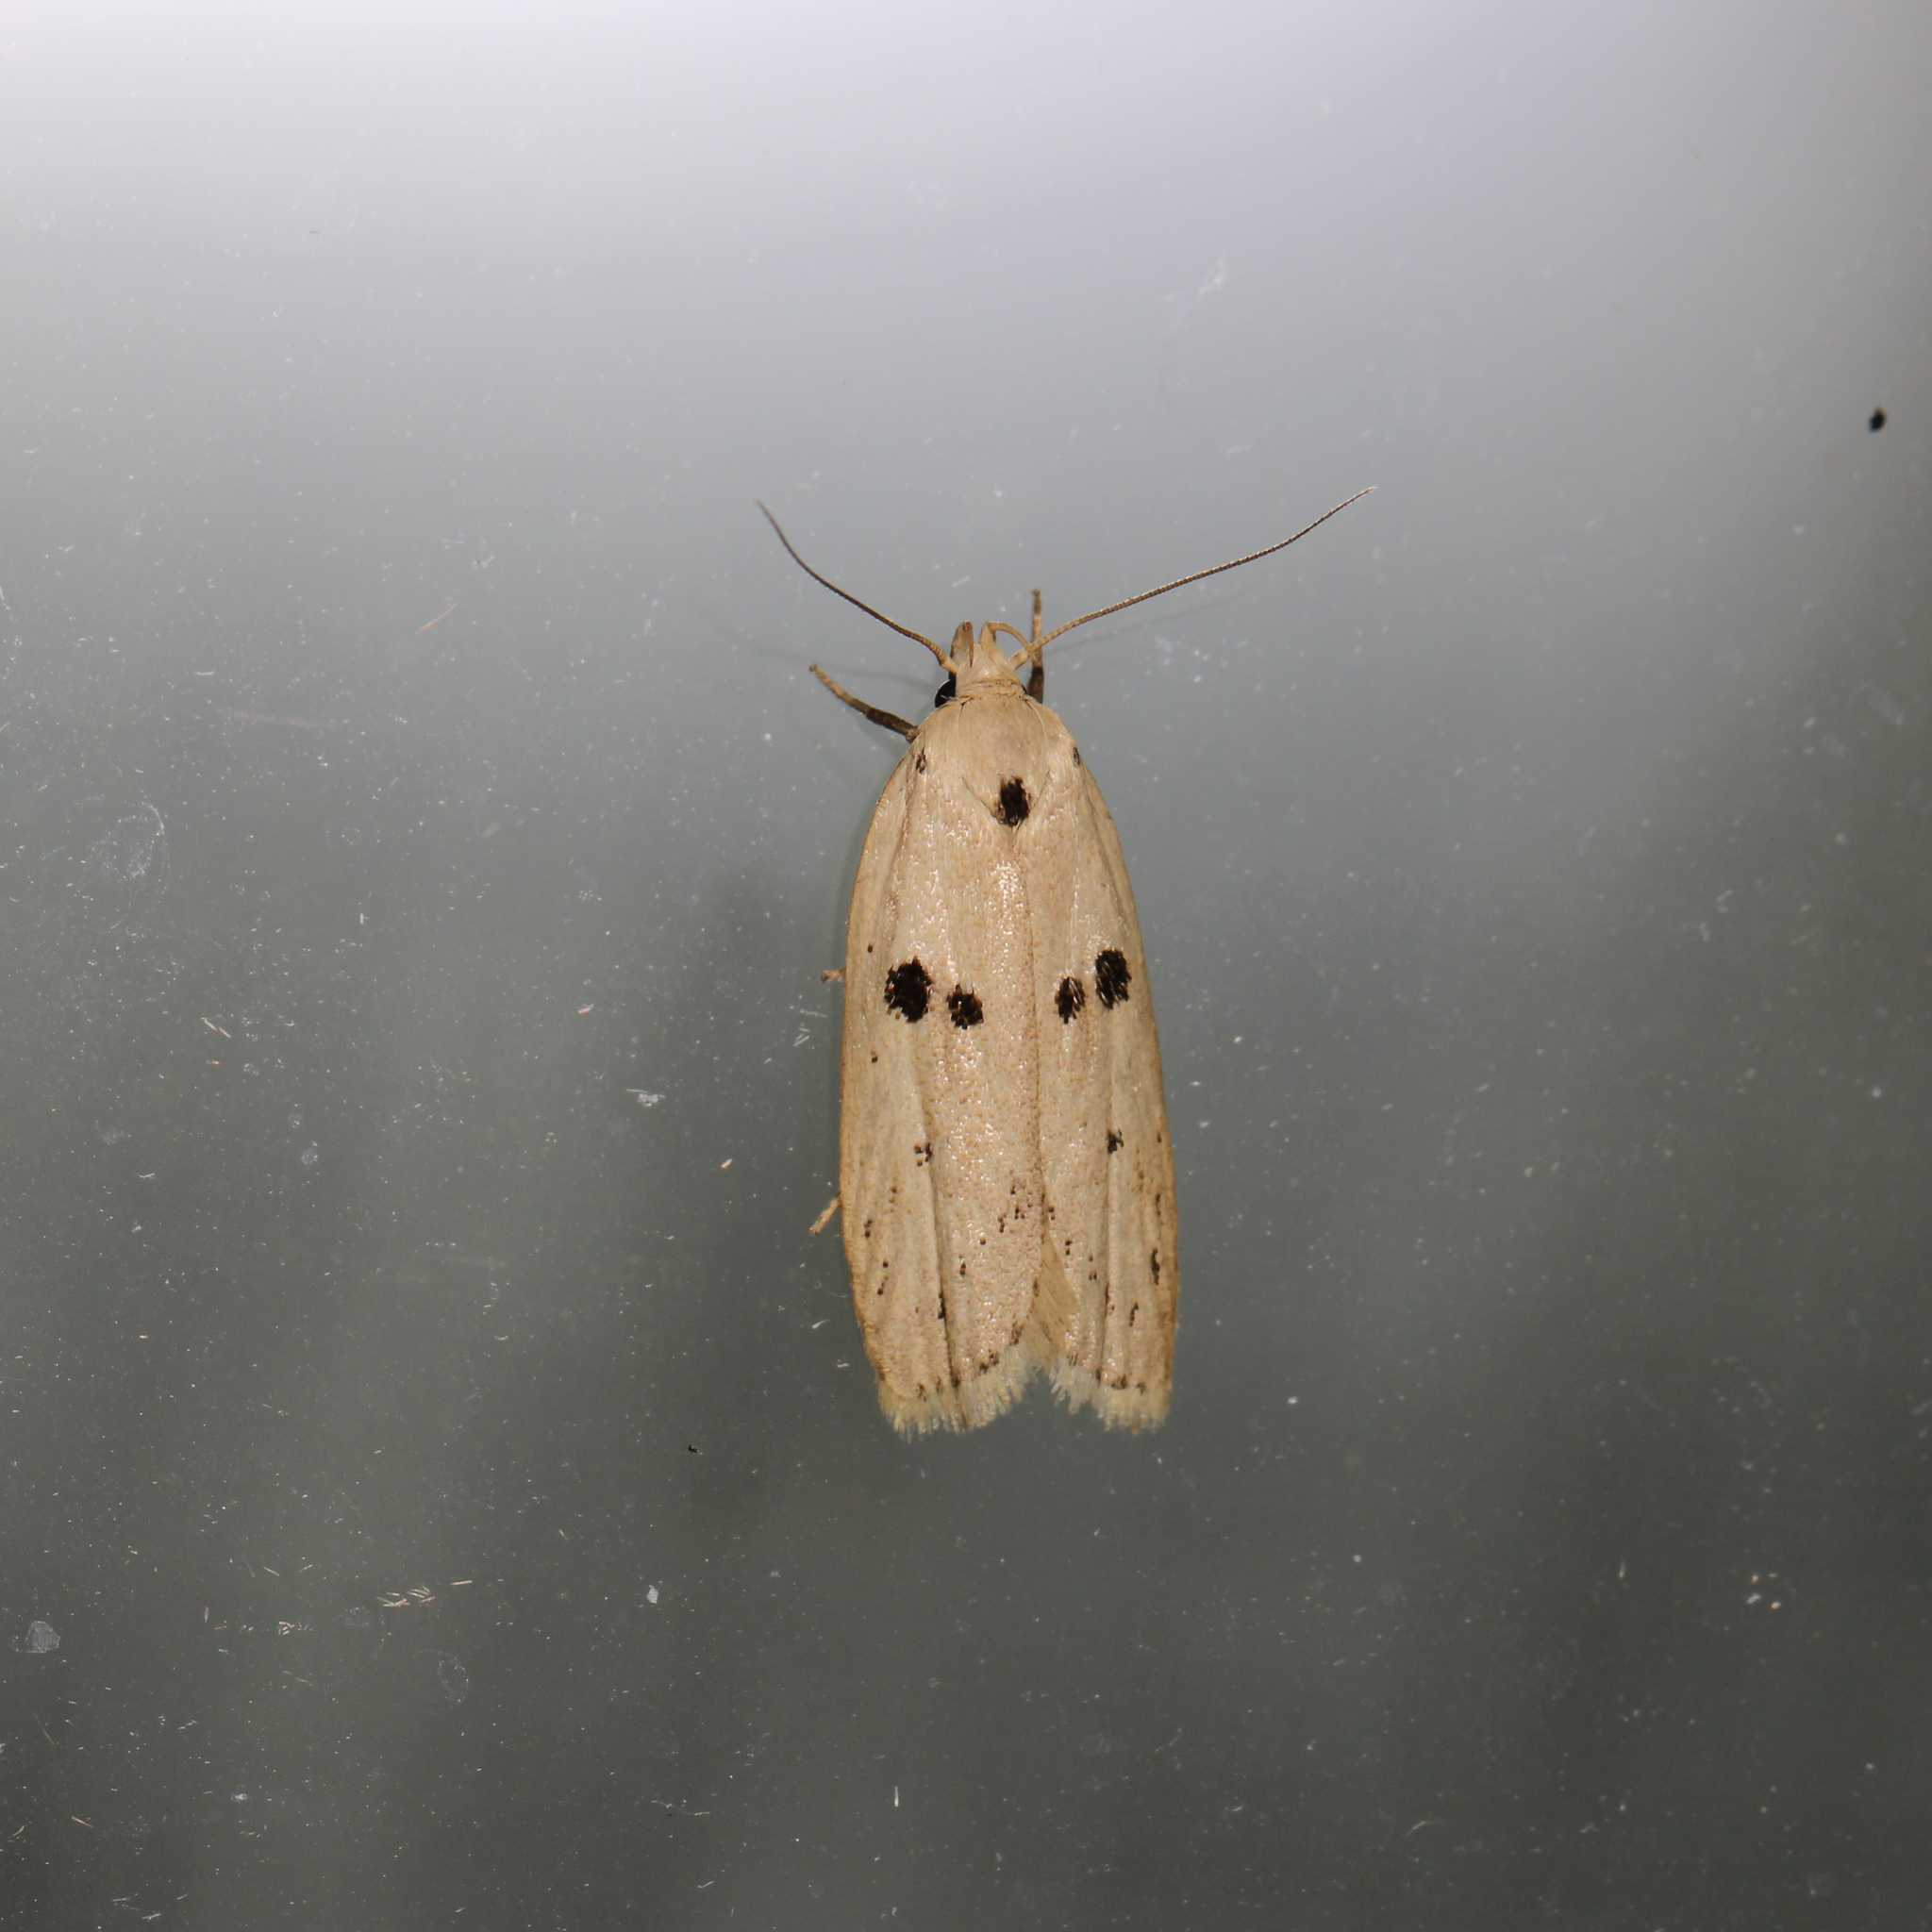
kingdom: Animalia
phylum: Arthropoda
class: Insecta
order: Lepidoptera
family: Peleopodidae
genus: Scythropiodes
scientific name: Scythropiodes issikii
